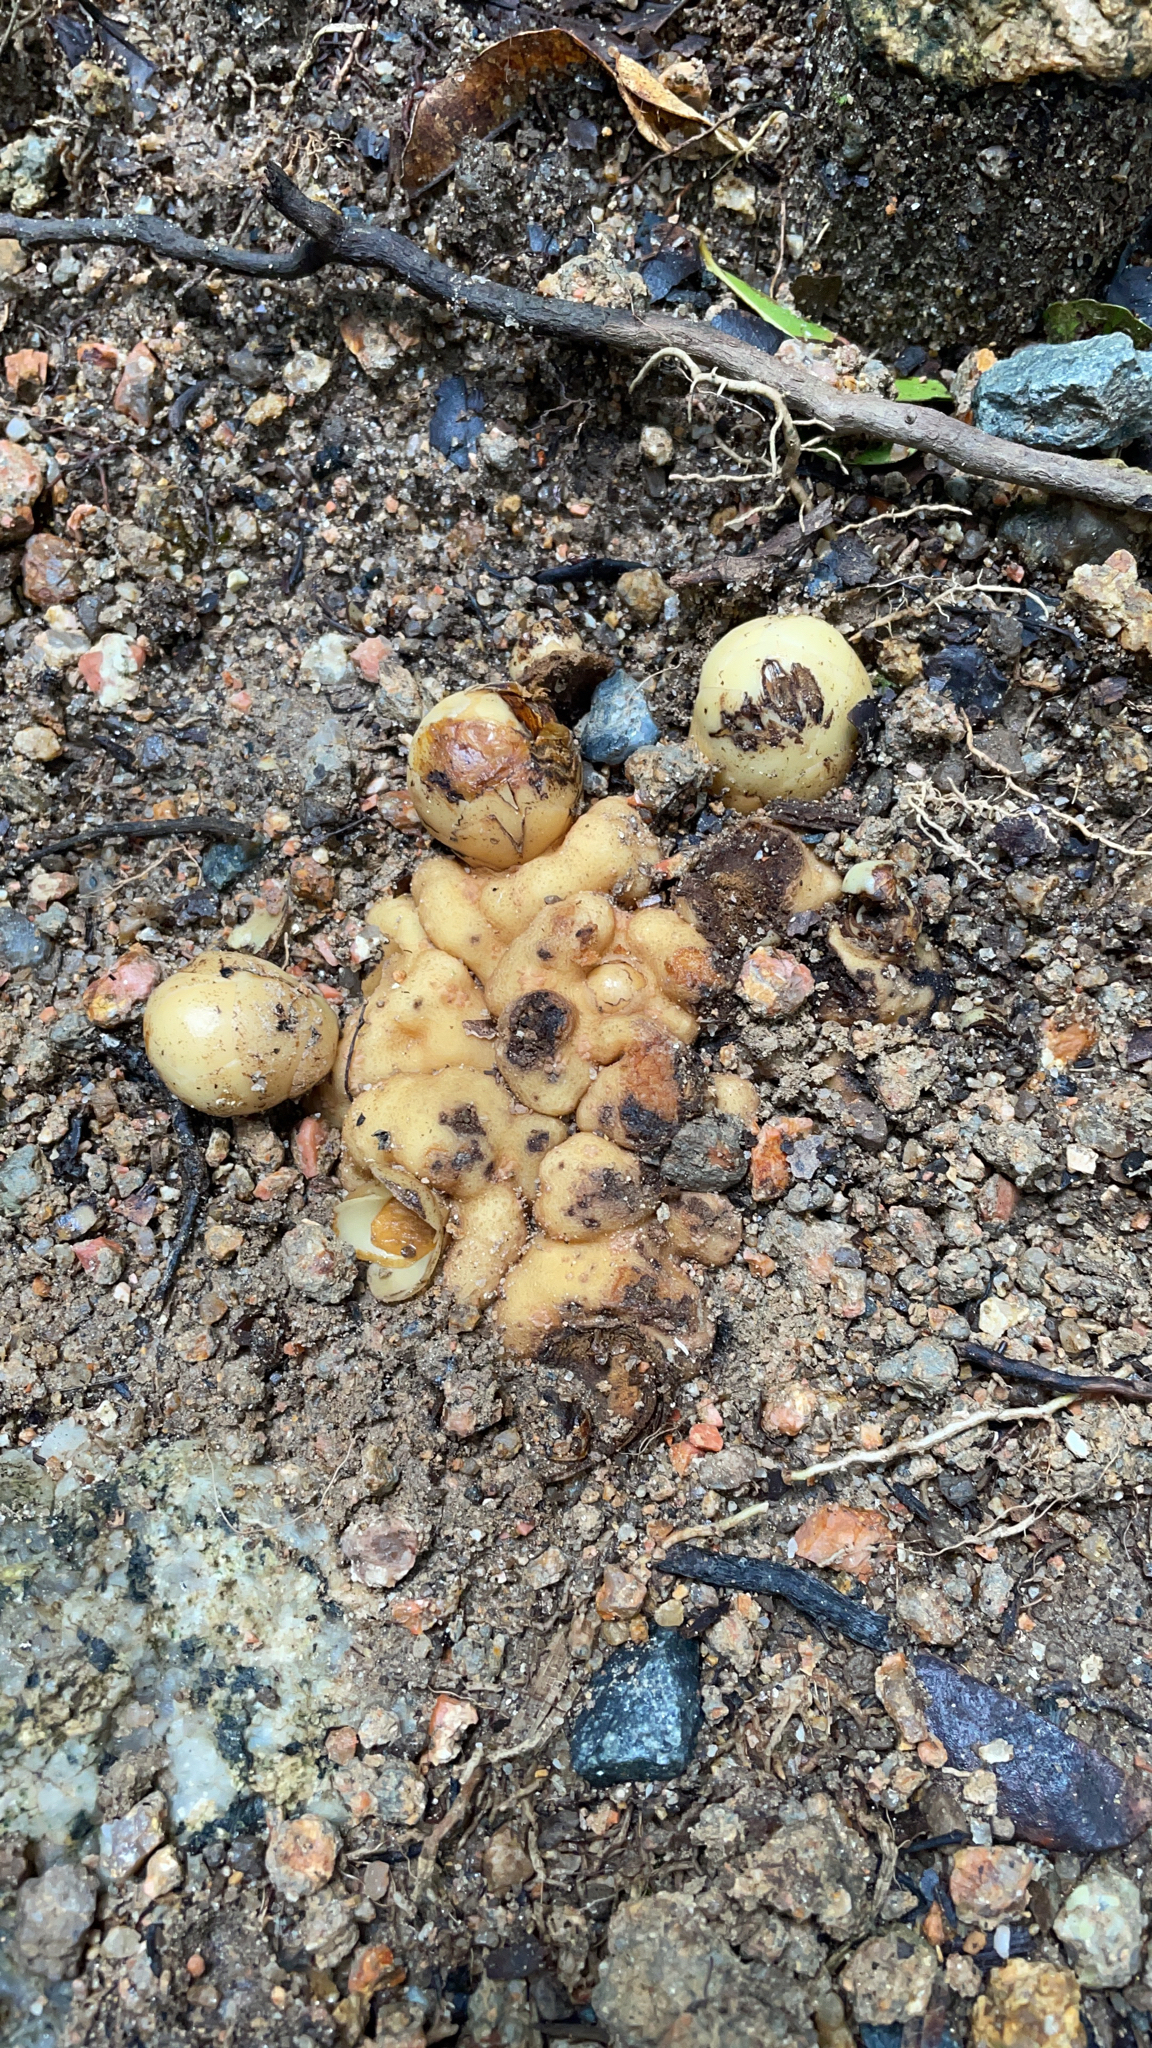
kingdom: Plantae
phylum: Tracheophyta
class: Magnoliopsida
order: Santalales
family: Balanophoraceae
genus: Balanophora
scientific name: Balanophora fungosa
